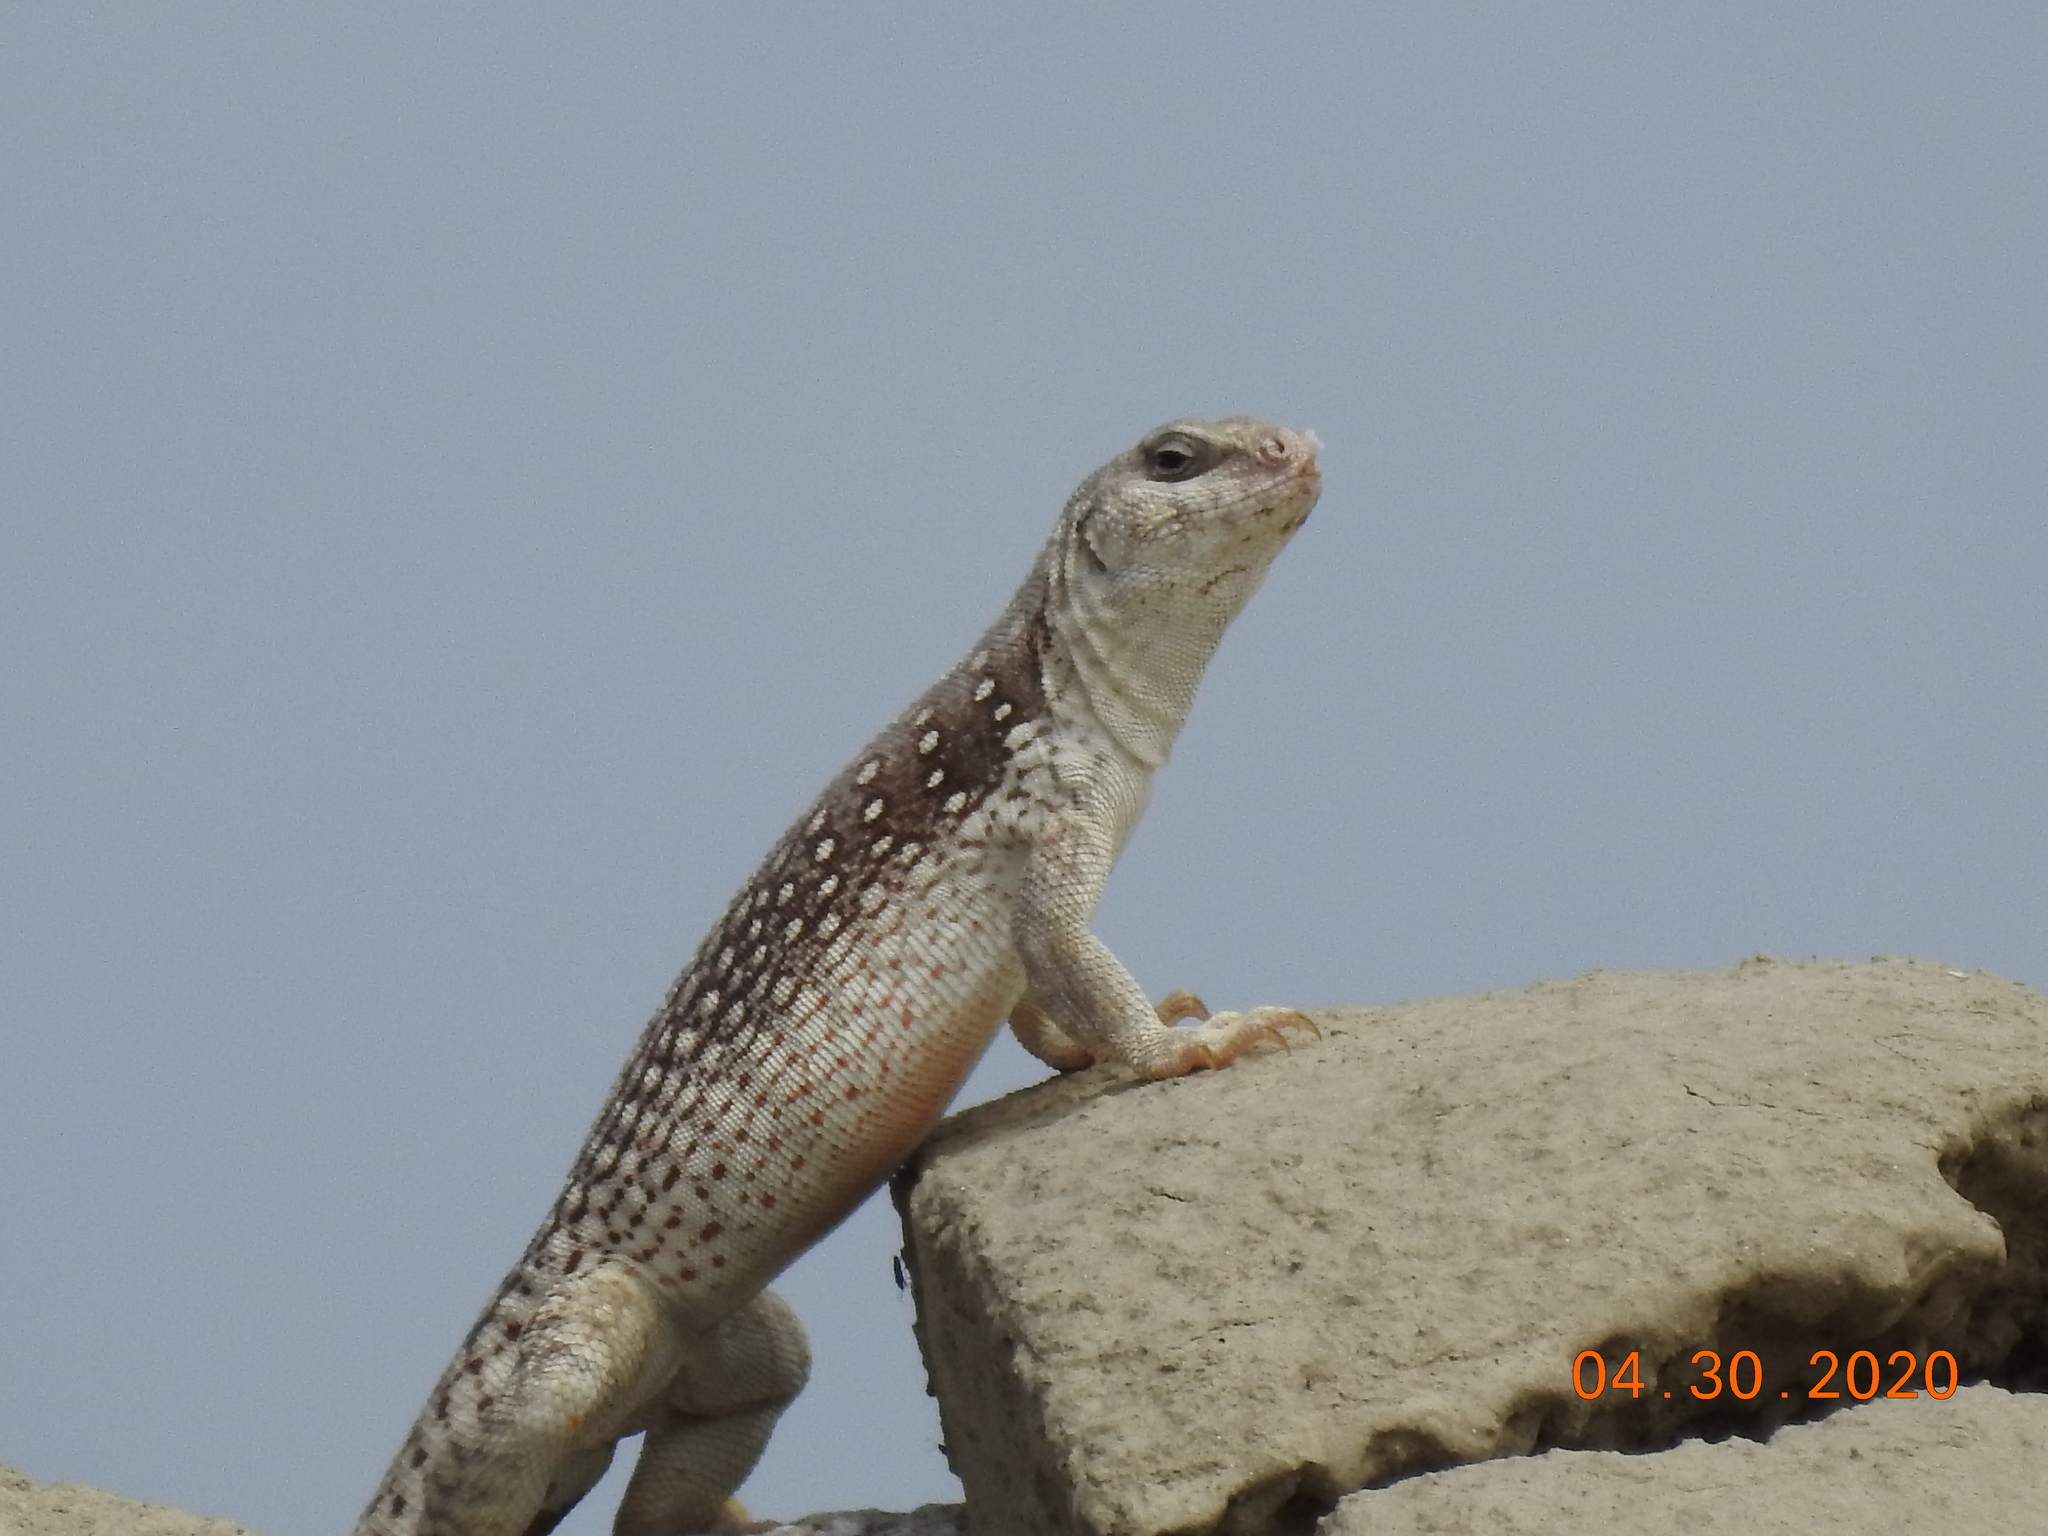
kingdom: Animalia
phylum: Chordata
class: Squamata
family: Iguanidae
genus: Dipsosaurus
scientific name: Dipsosaurus dorsalis
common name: Desert iguana
